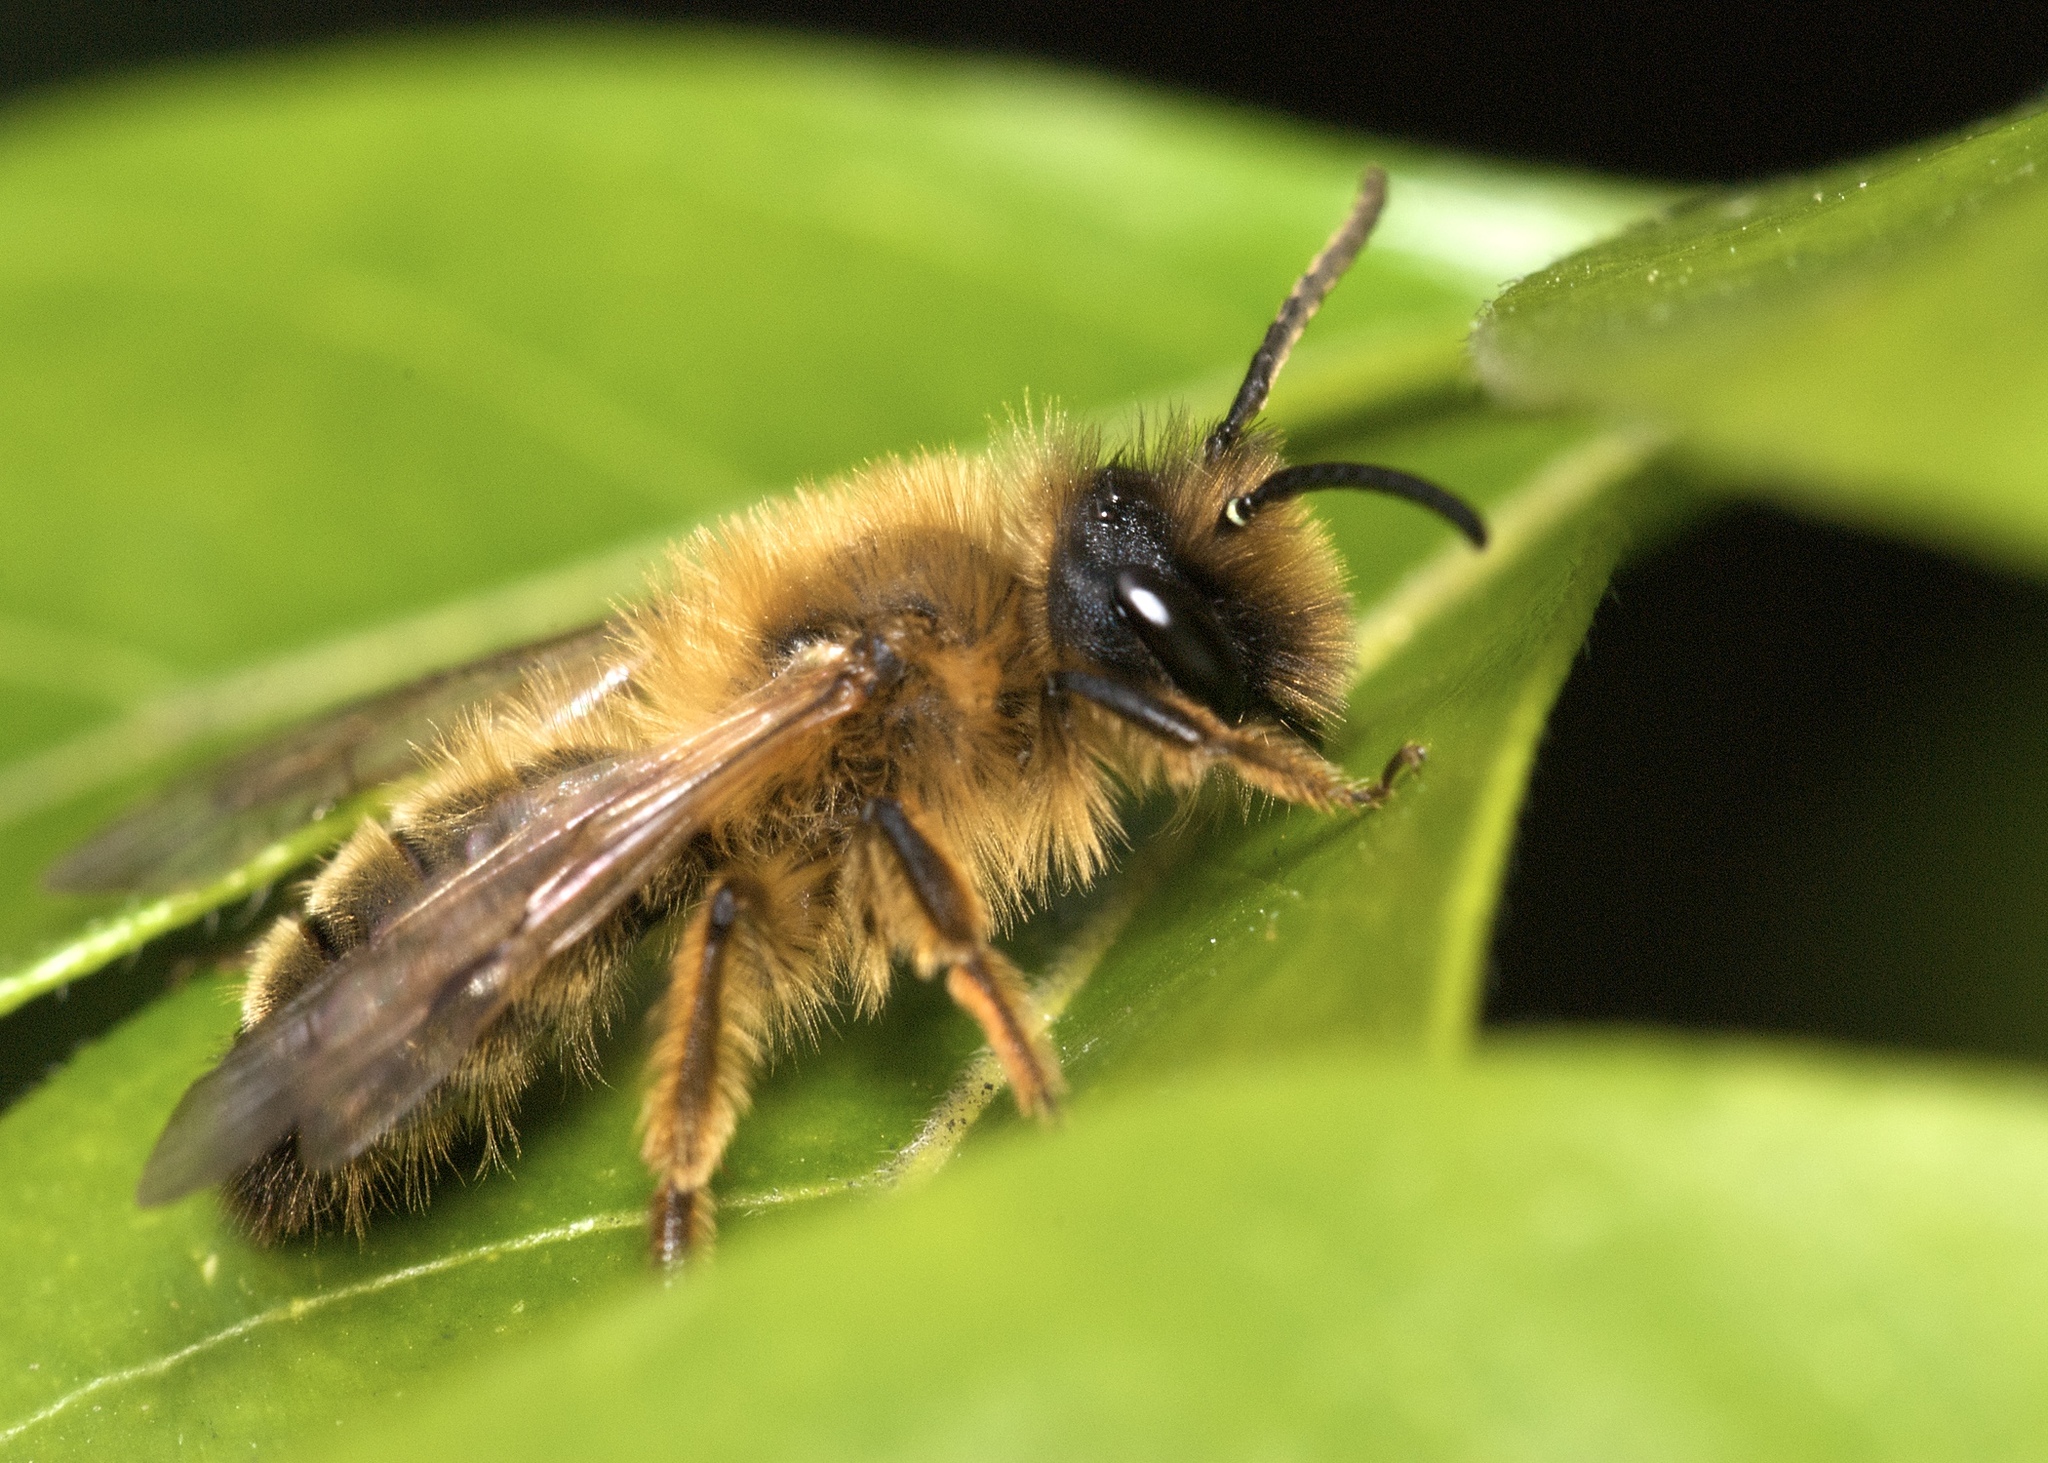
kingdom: Animalia
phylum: Arthropoda
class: Insecta
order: Hymenoptera
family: Andrenidae
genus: Andrena
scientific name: Andrena nigroaenea
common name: Buffish mining bee
